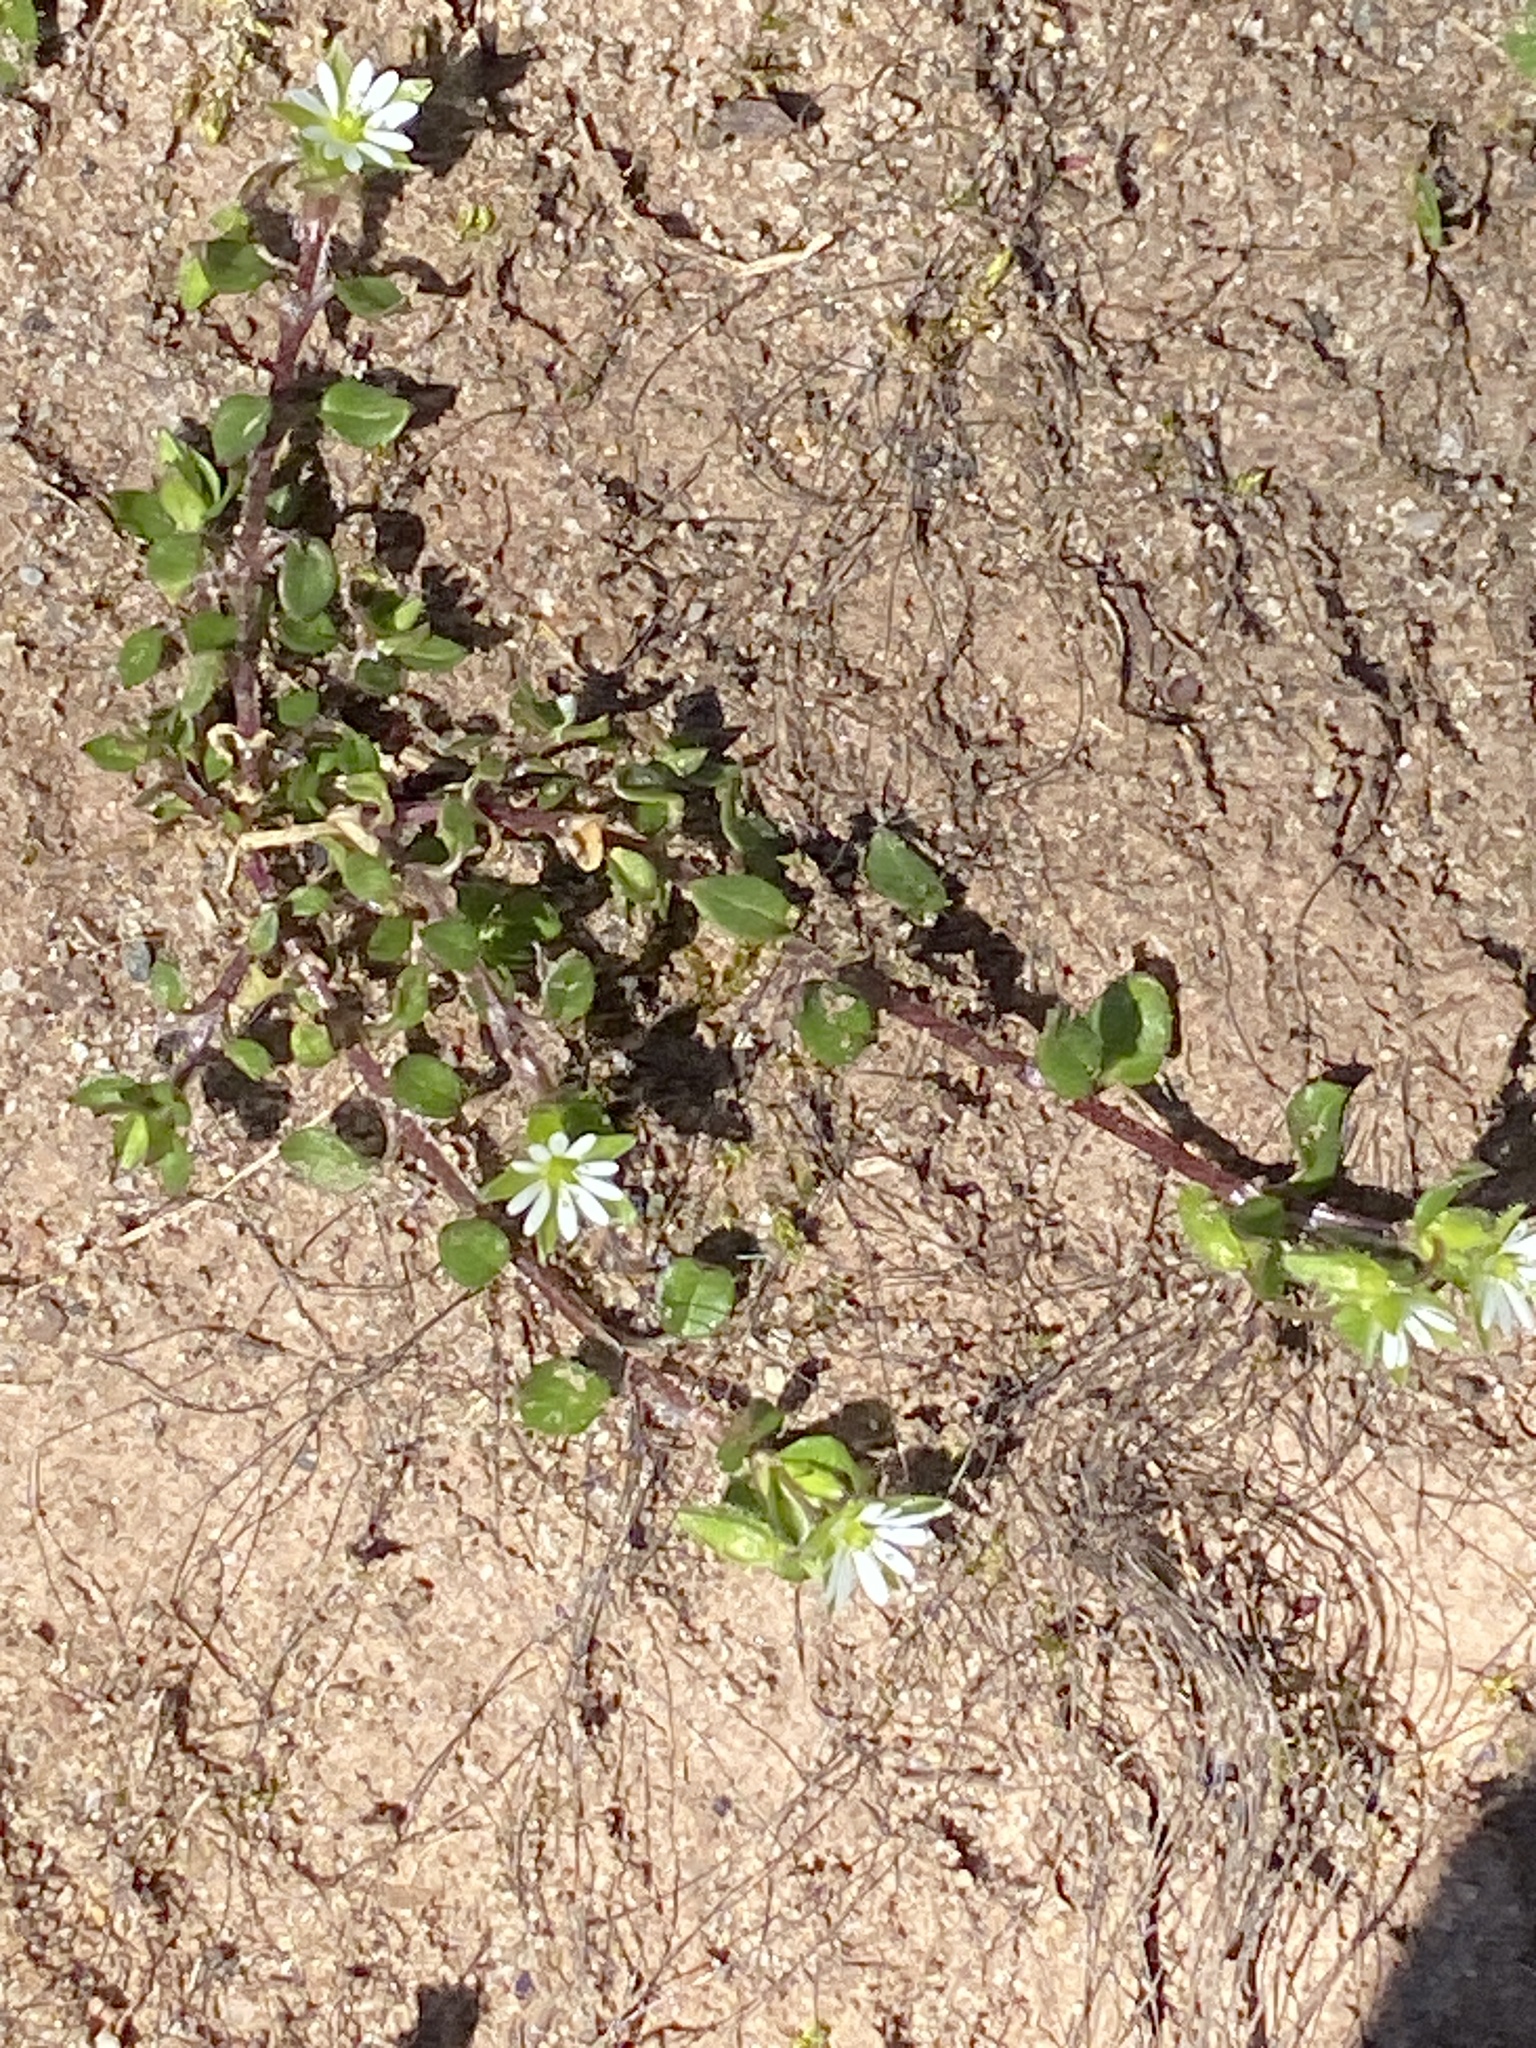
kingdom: Plantae
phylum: Tracheophyta
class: Magnoliopsida
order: Caryophyllales
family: Caryophyllaceae
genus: Stellaria
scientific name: Stellaria media
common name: Common chickweed
